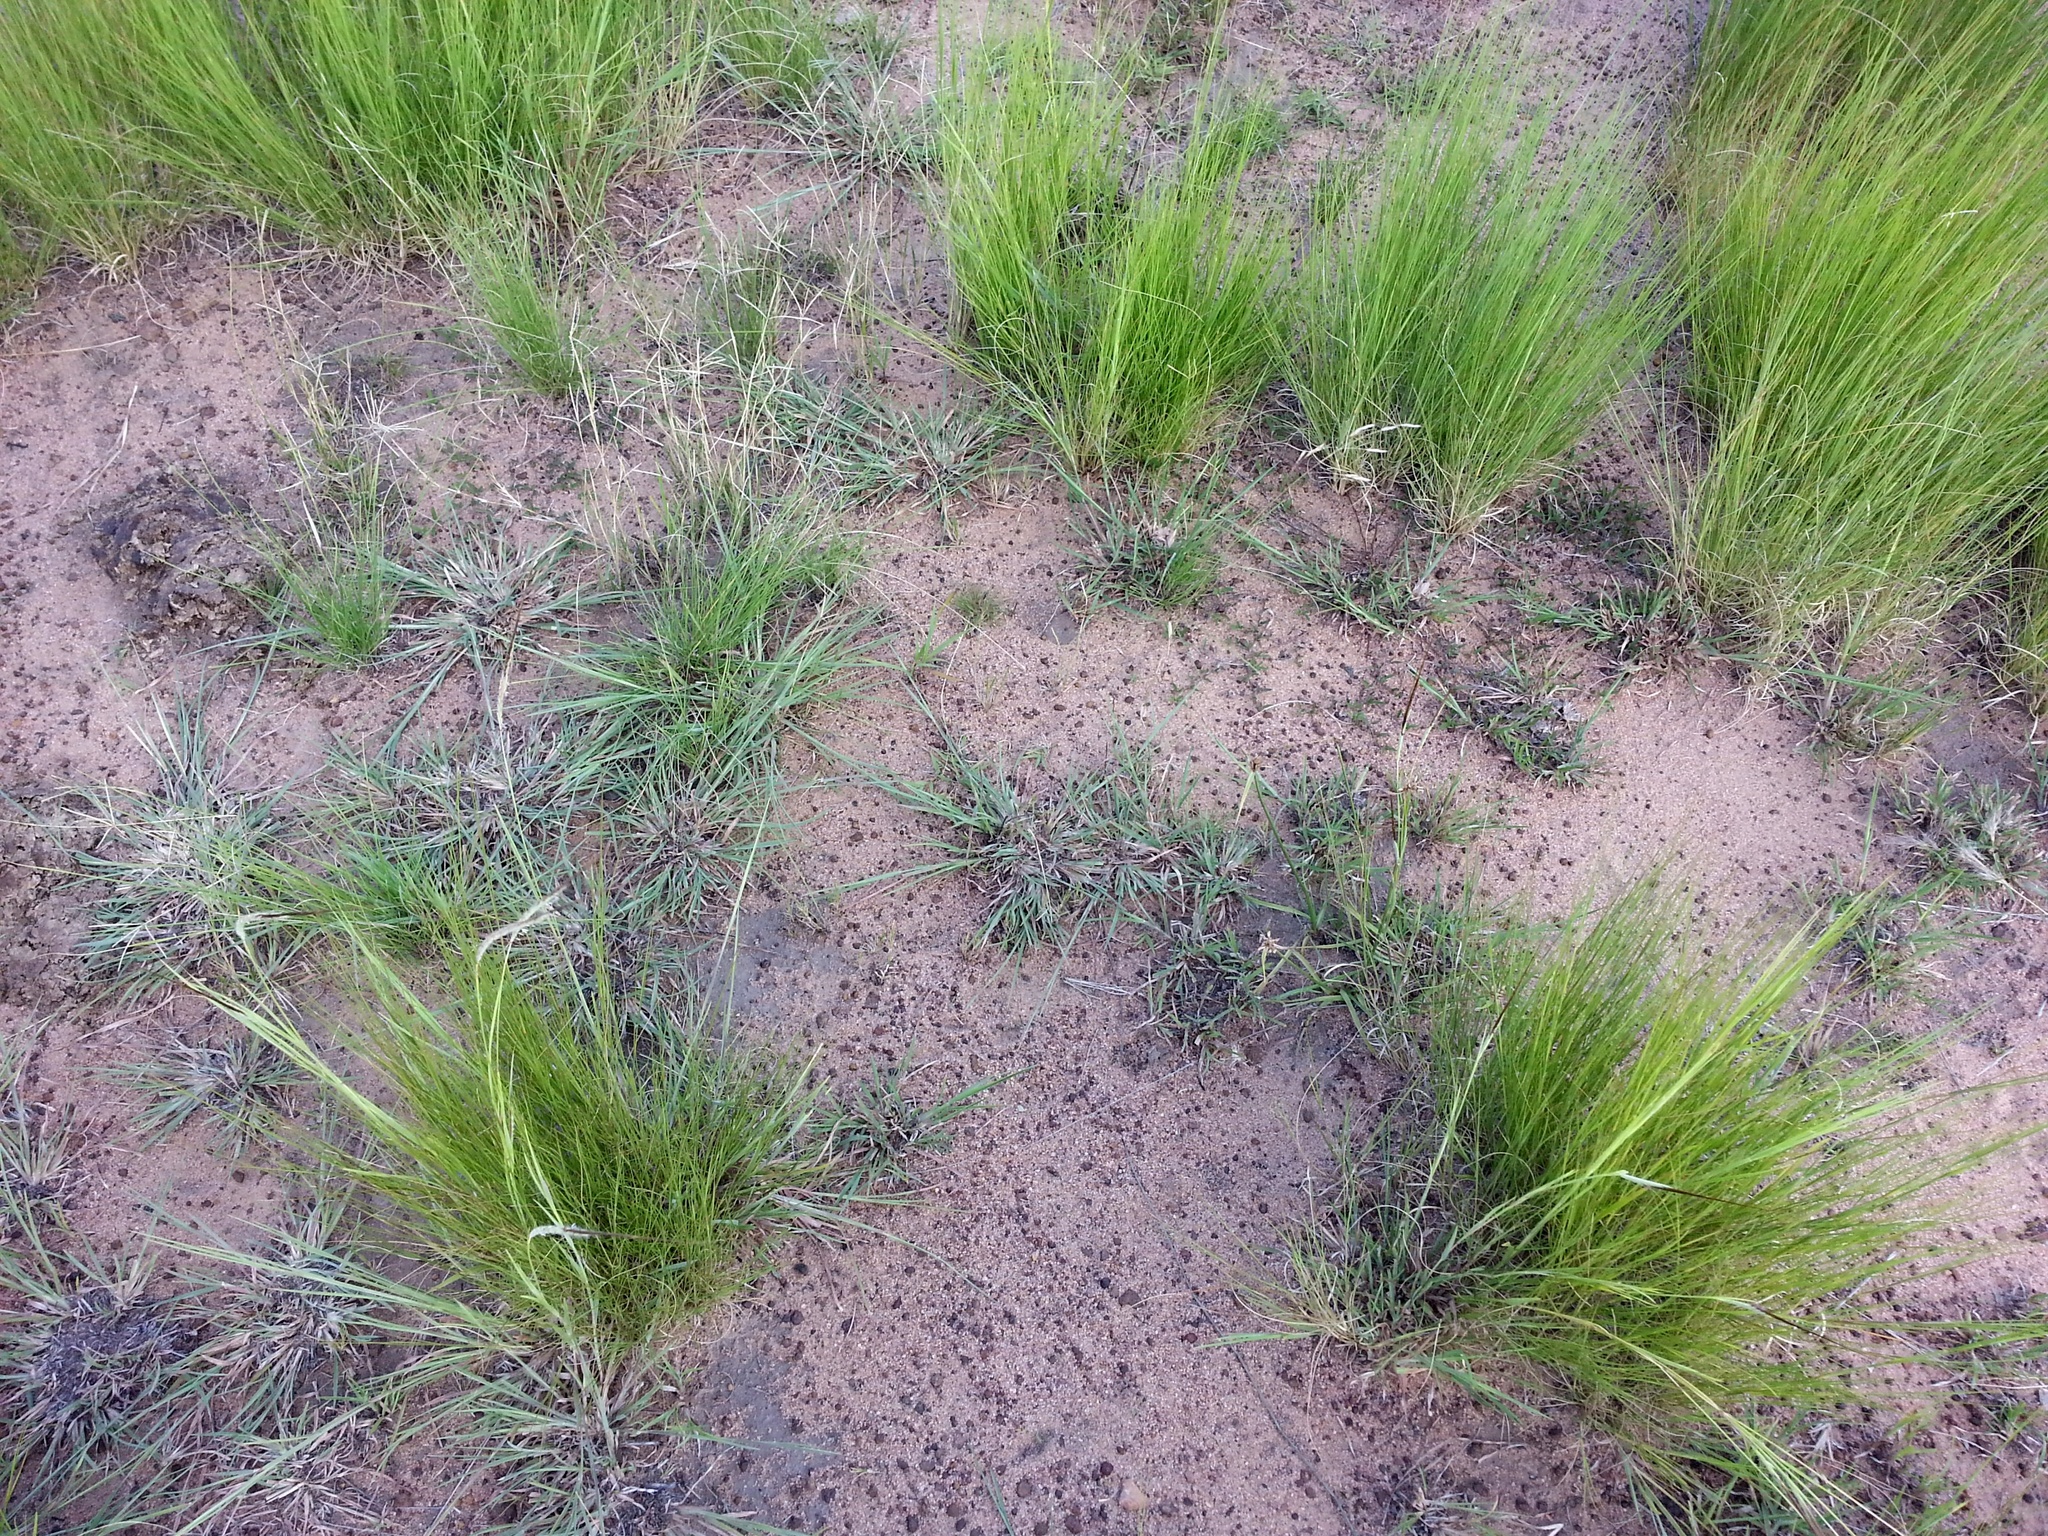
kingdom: Plantae
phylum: Tracheophyta
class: Liliopsida
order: Poales
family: Poaceae
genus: Heteropogon
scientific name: Heteropogon contortus
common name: Tanglehead
